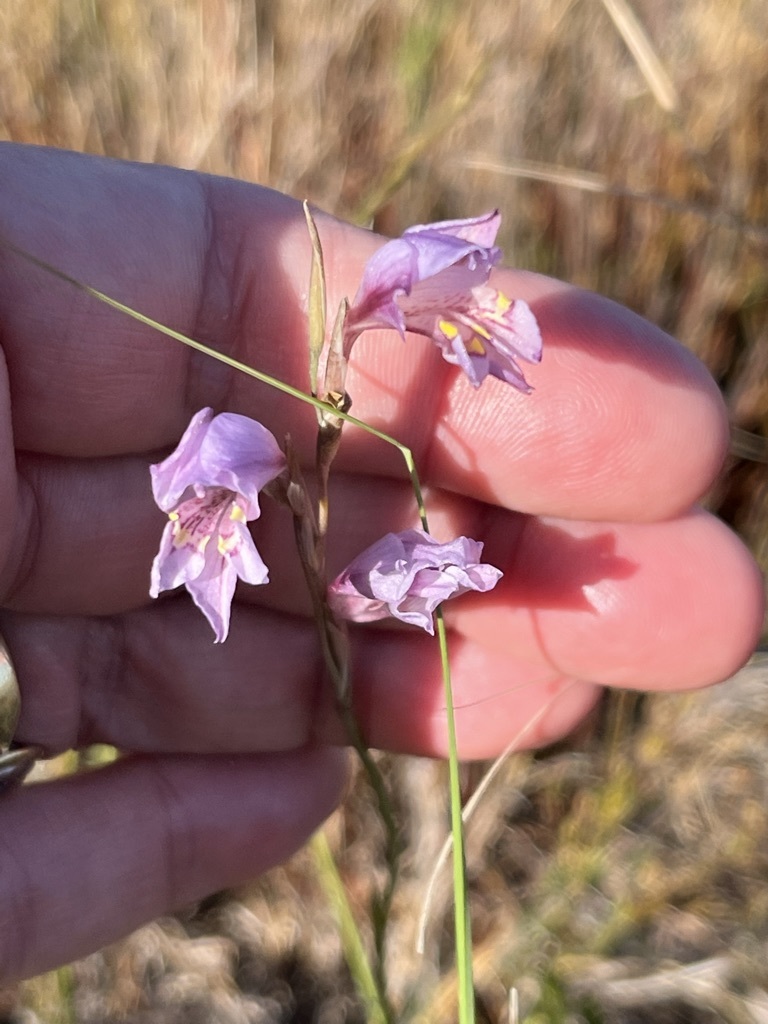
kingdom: Plantae
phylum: Tracheophyta
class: Liliopsida
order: Asparagales
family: Iridaceae
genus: Gladiolus
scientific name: Gladiolus brevifolius
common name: March pypie
